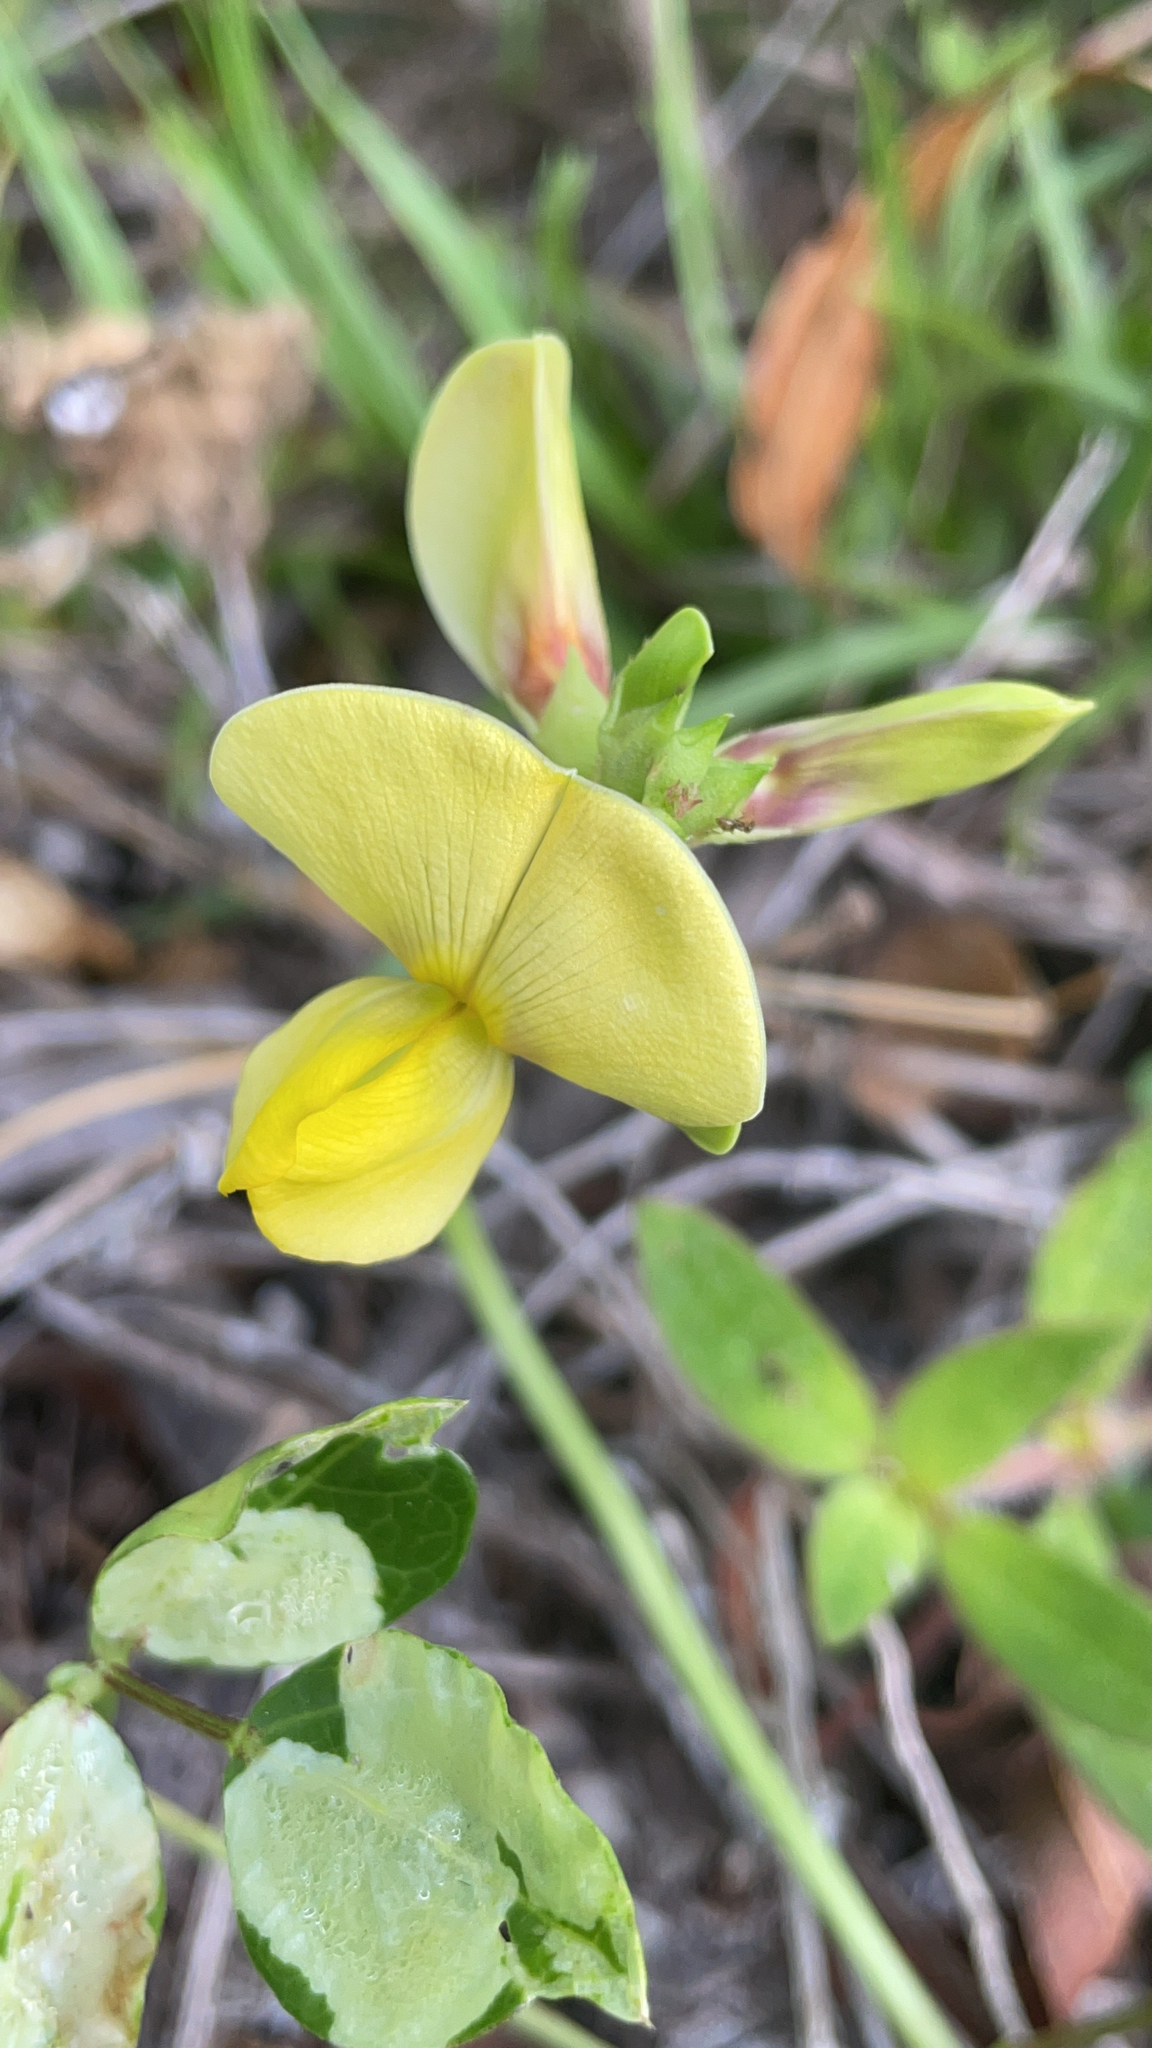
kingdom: Plantae
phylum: Tracheophyta
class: Magnoliopsida
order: Fabales
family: Fabaceae
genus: Vigna
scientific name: Vigna luteola
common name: Hairypod cowpea
